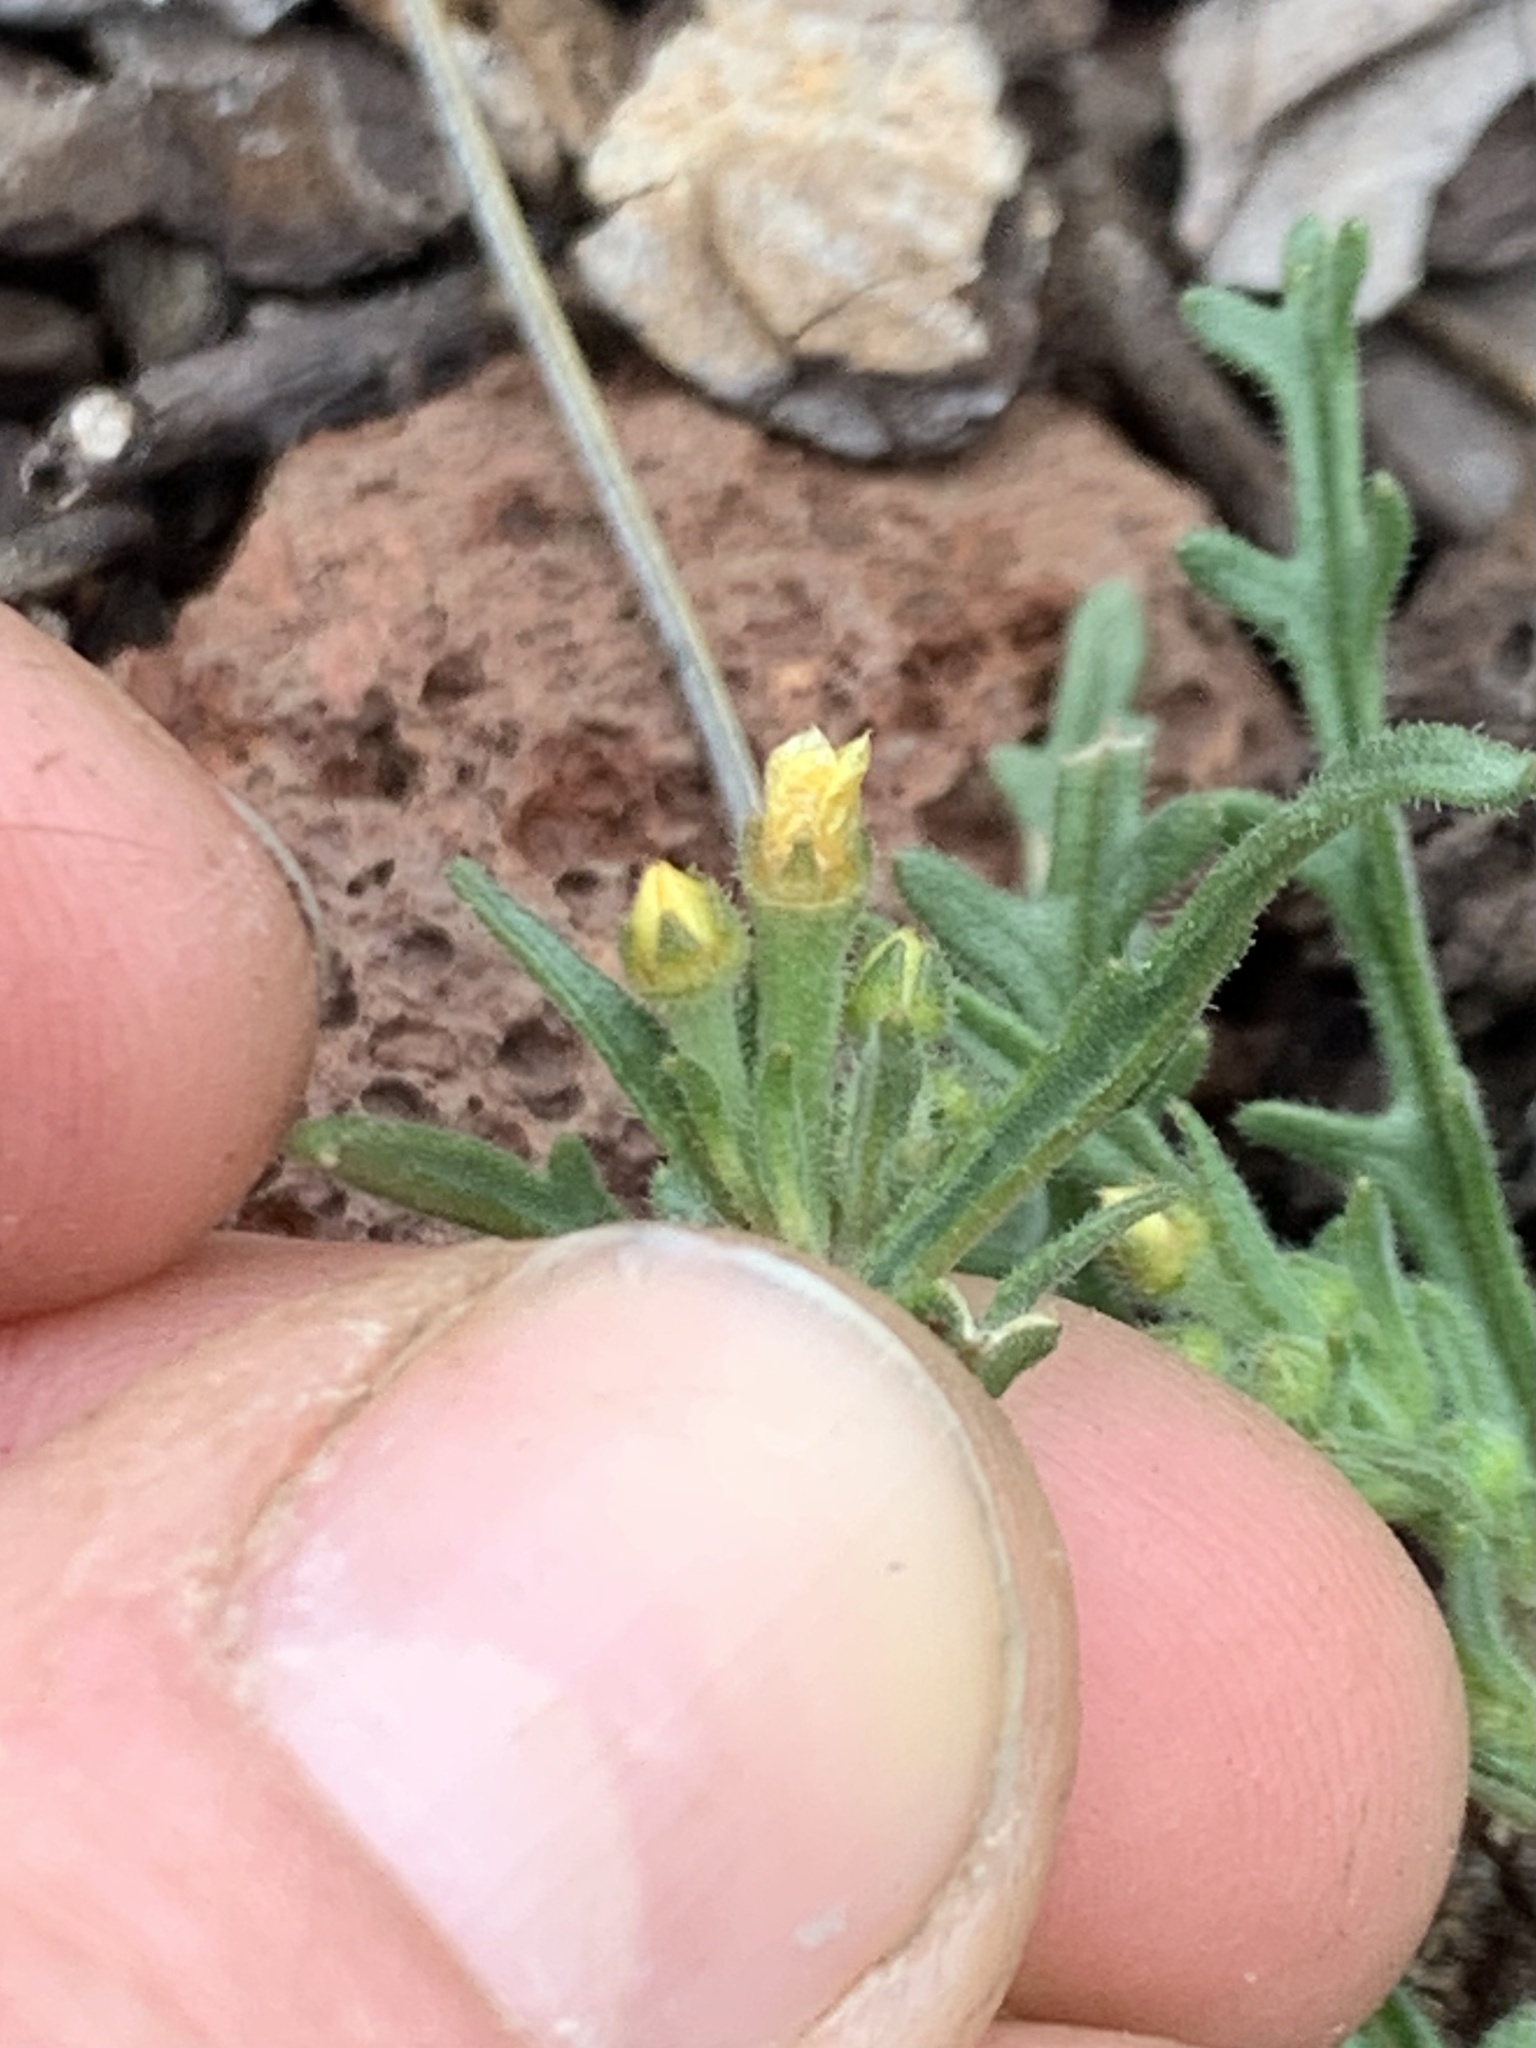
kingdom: Plantae
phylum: Tracheophyta
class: Magnoliopsida
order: Cornales
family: Loasaceae
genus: Mentzelia
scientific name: Mentzelia albicaulis
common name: White-stem blazingstar
